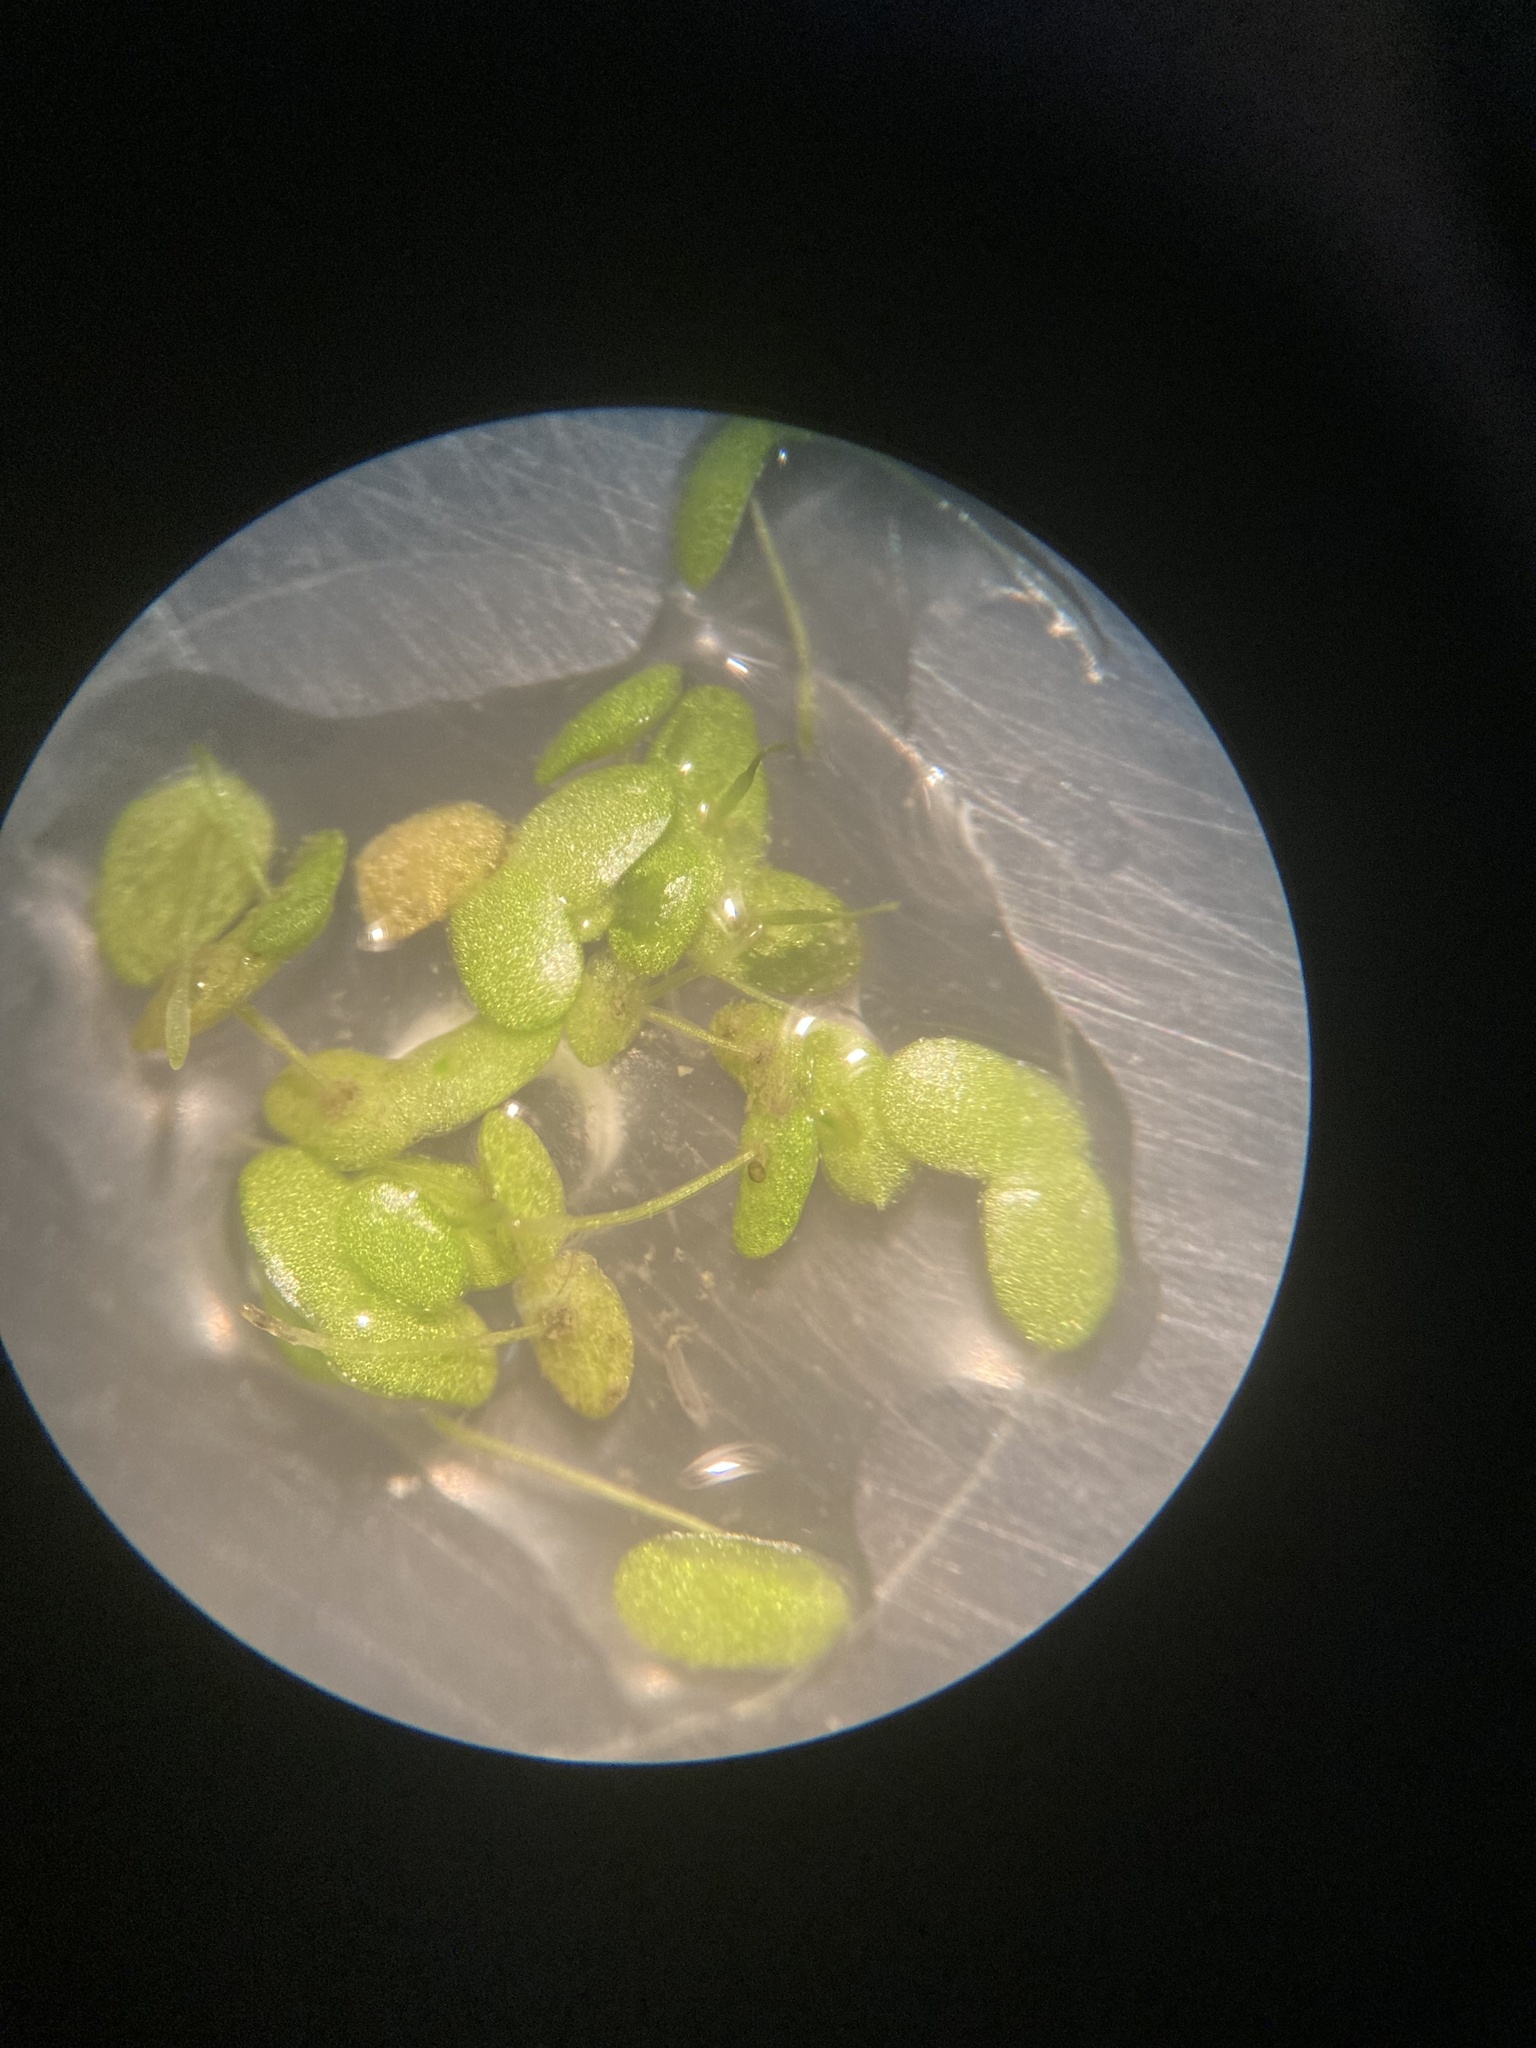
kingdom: Plantae
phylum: Tracheophyta
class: Liliopsida
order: Alismatales
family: Araceae
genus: Lemna
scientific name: Lemna minor
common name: Common duckweed
